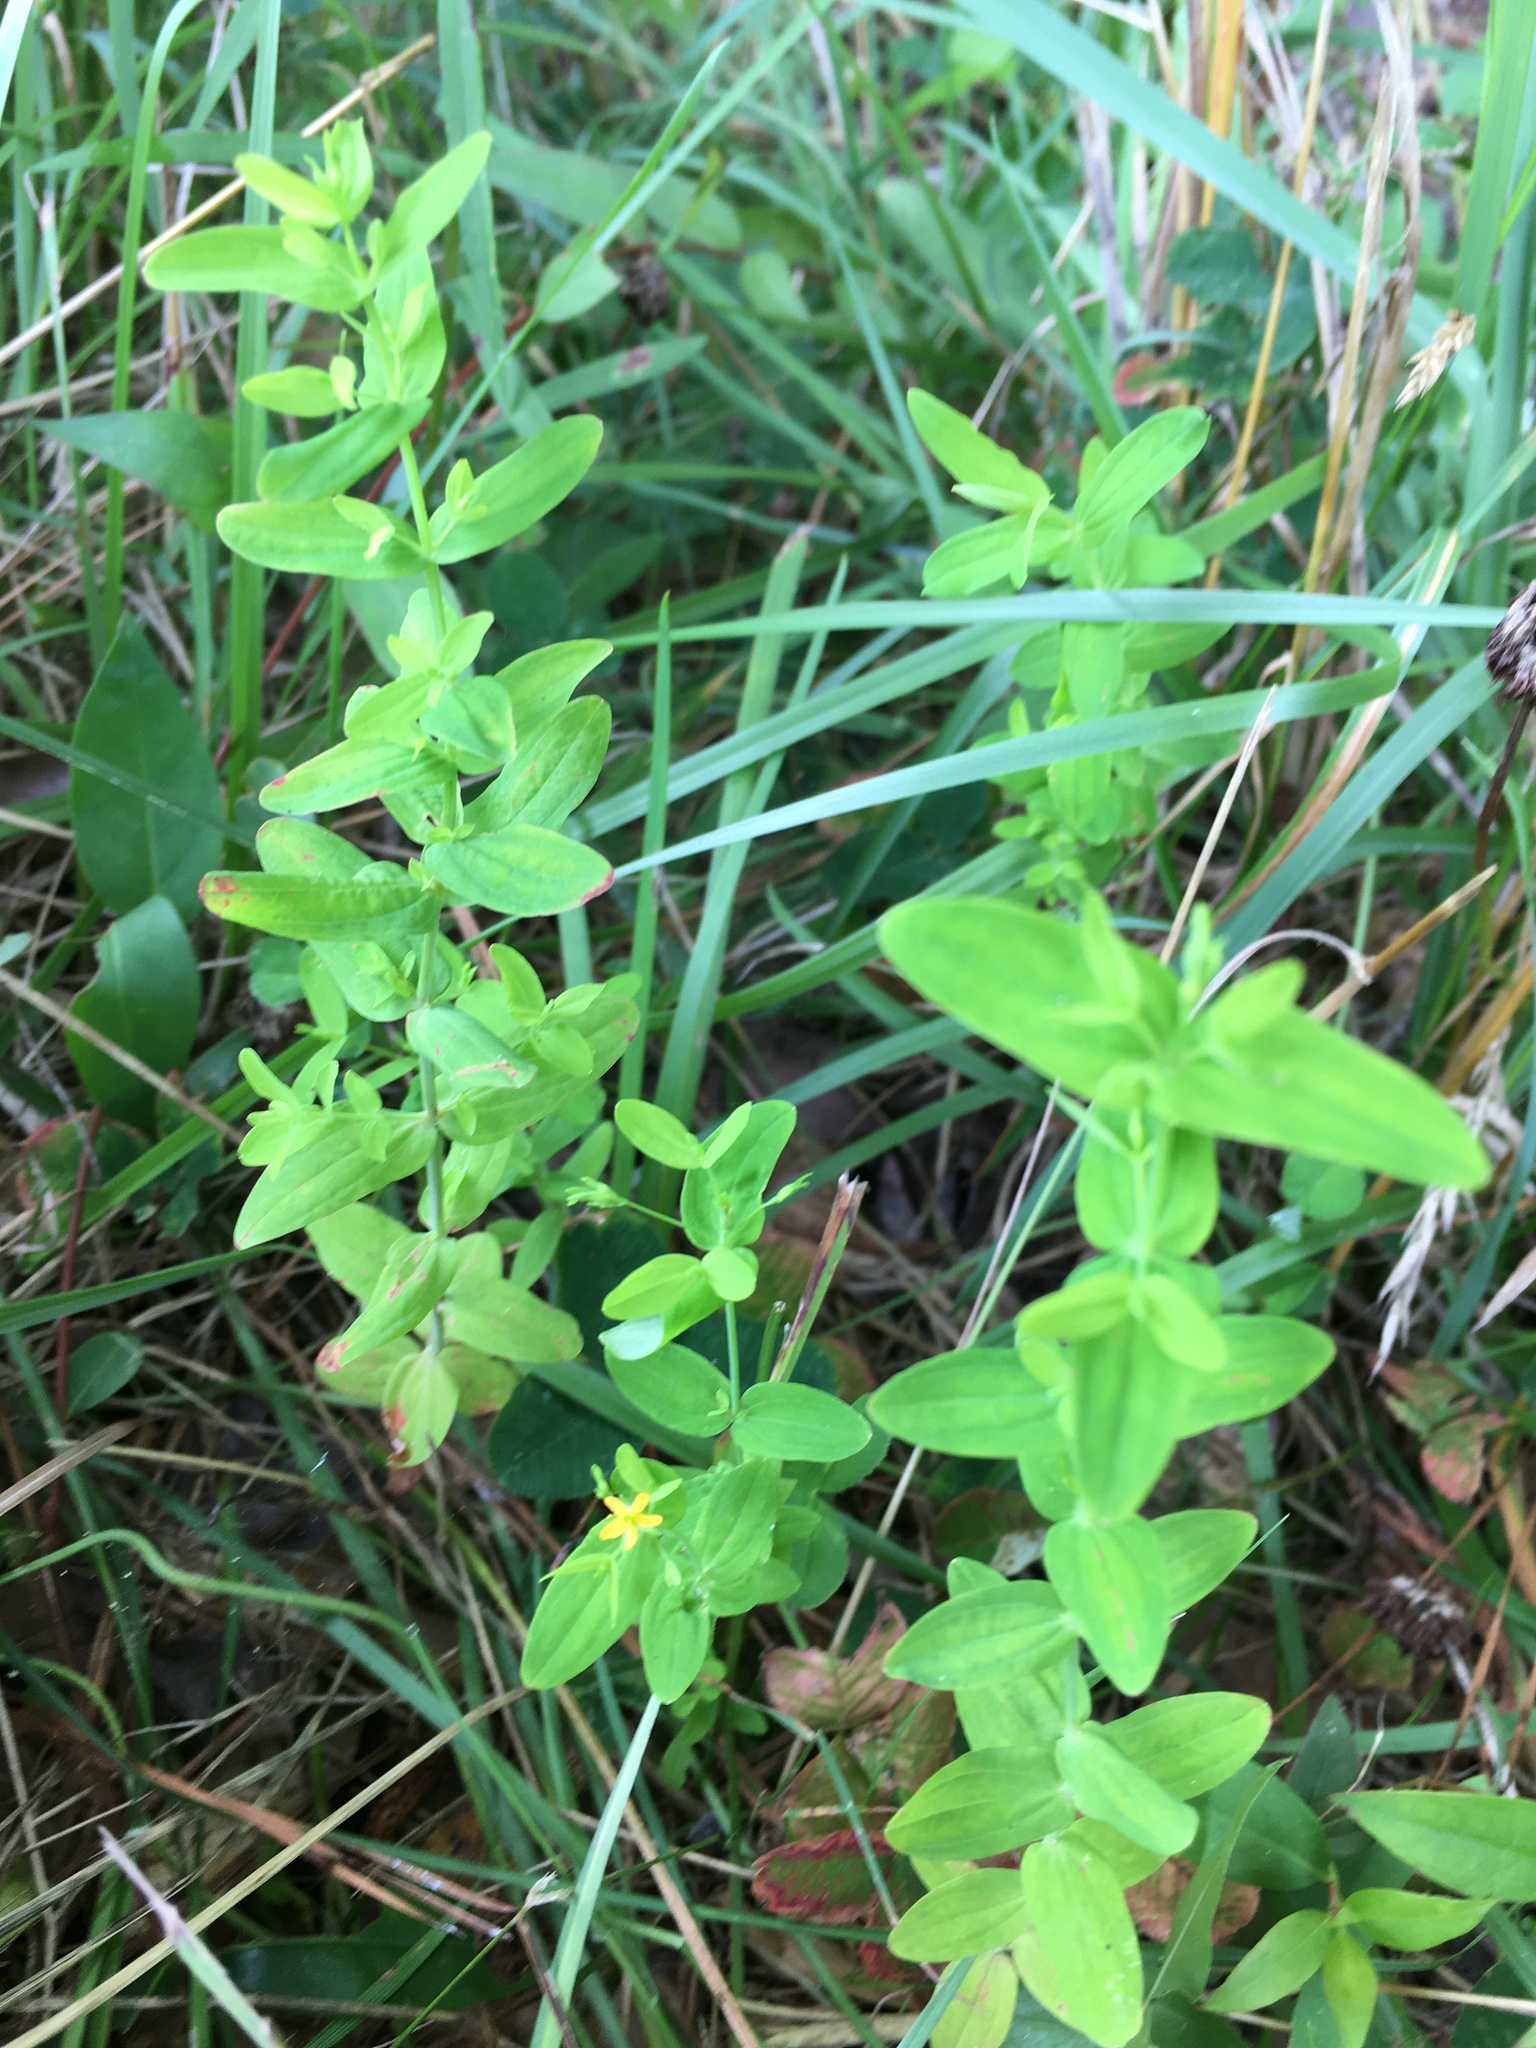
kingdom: Plantae
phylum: Tracheophyta
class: Magnoliopsida
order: Malpighiales
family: Hypericaceae
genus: Hypericum
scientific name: Hypericum mutilum
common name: Dwarf st. john's-wort
